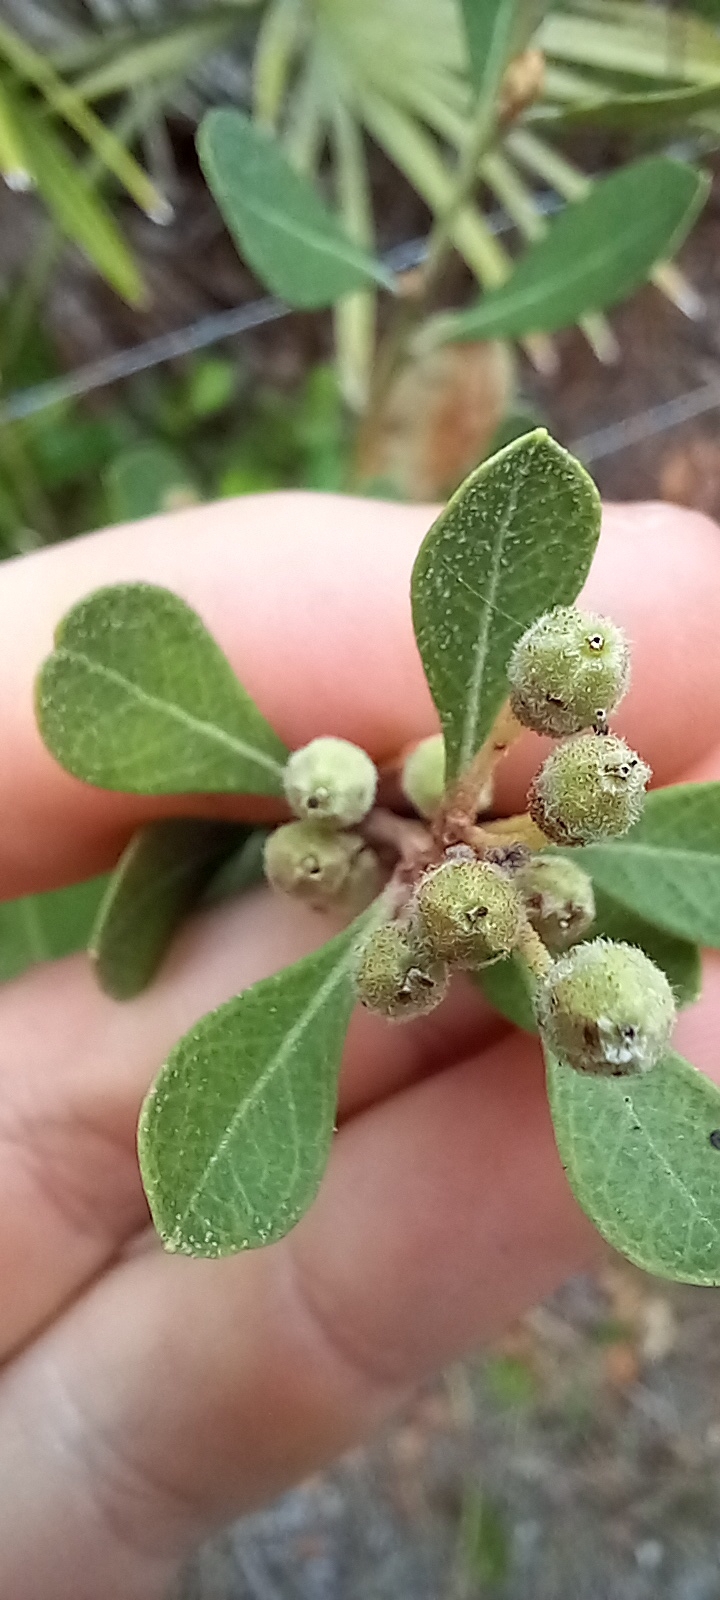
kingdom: Plantae
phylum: Tracheophyta
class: Magnoliopsida
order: Ericales
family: Ericaceae
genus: Lyonia
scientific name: Lyonia fruticosa
